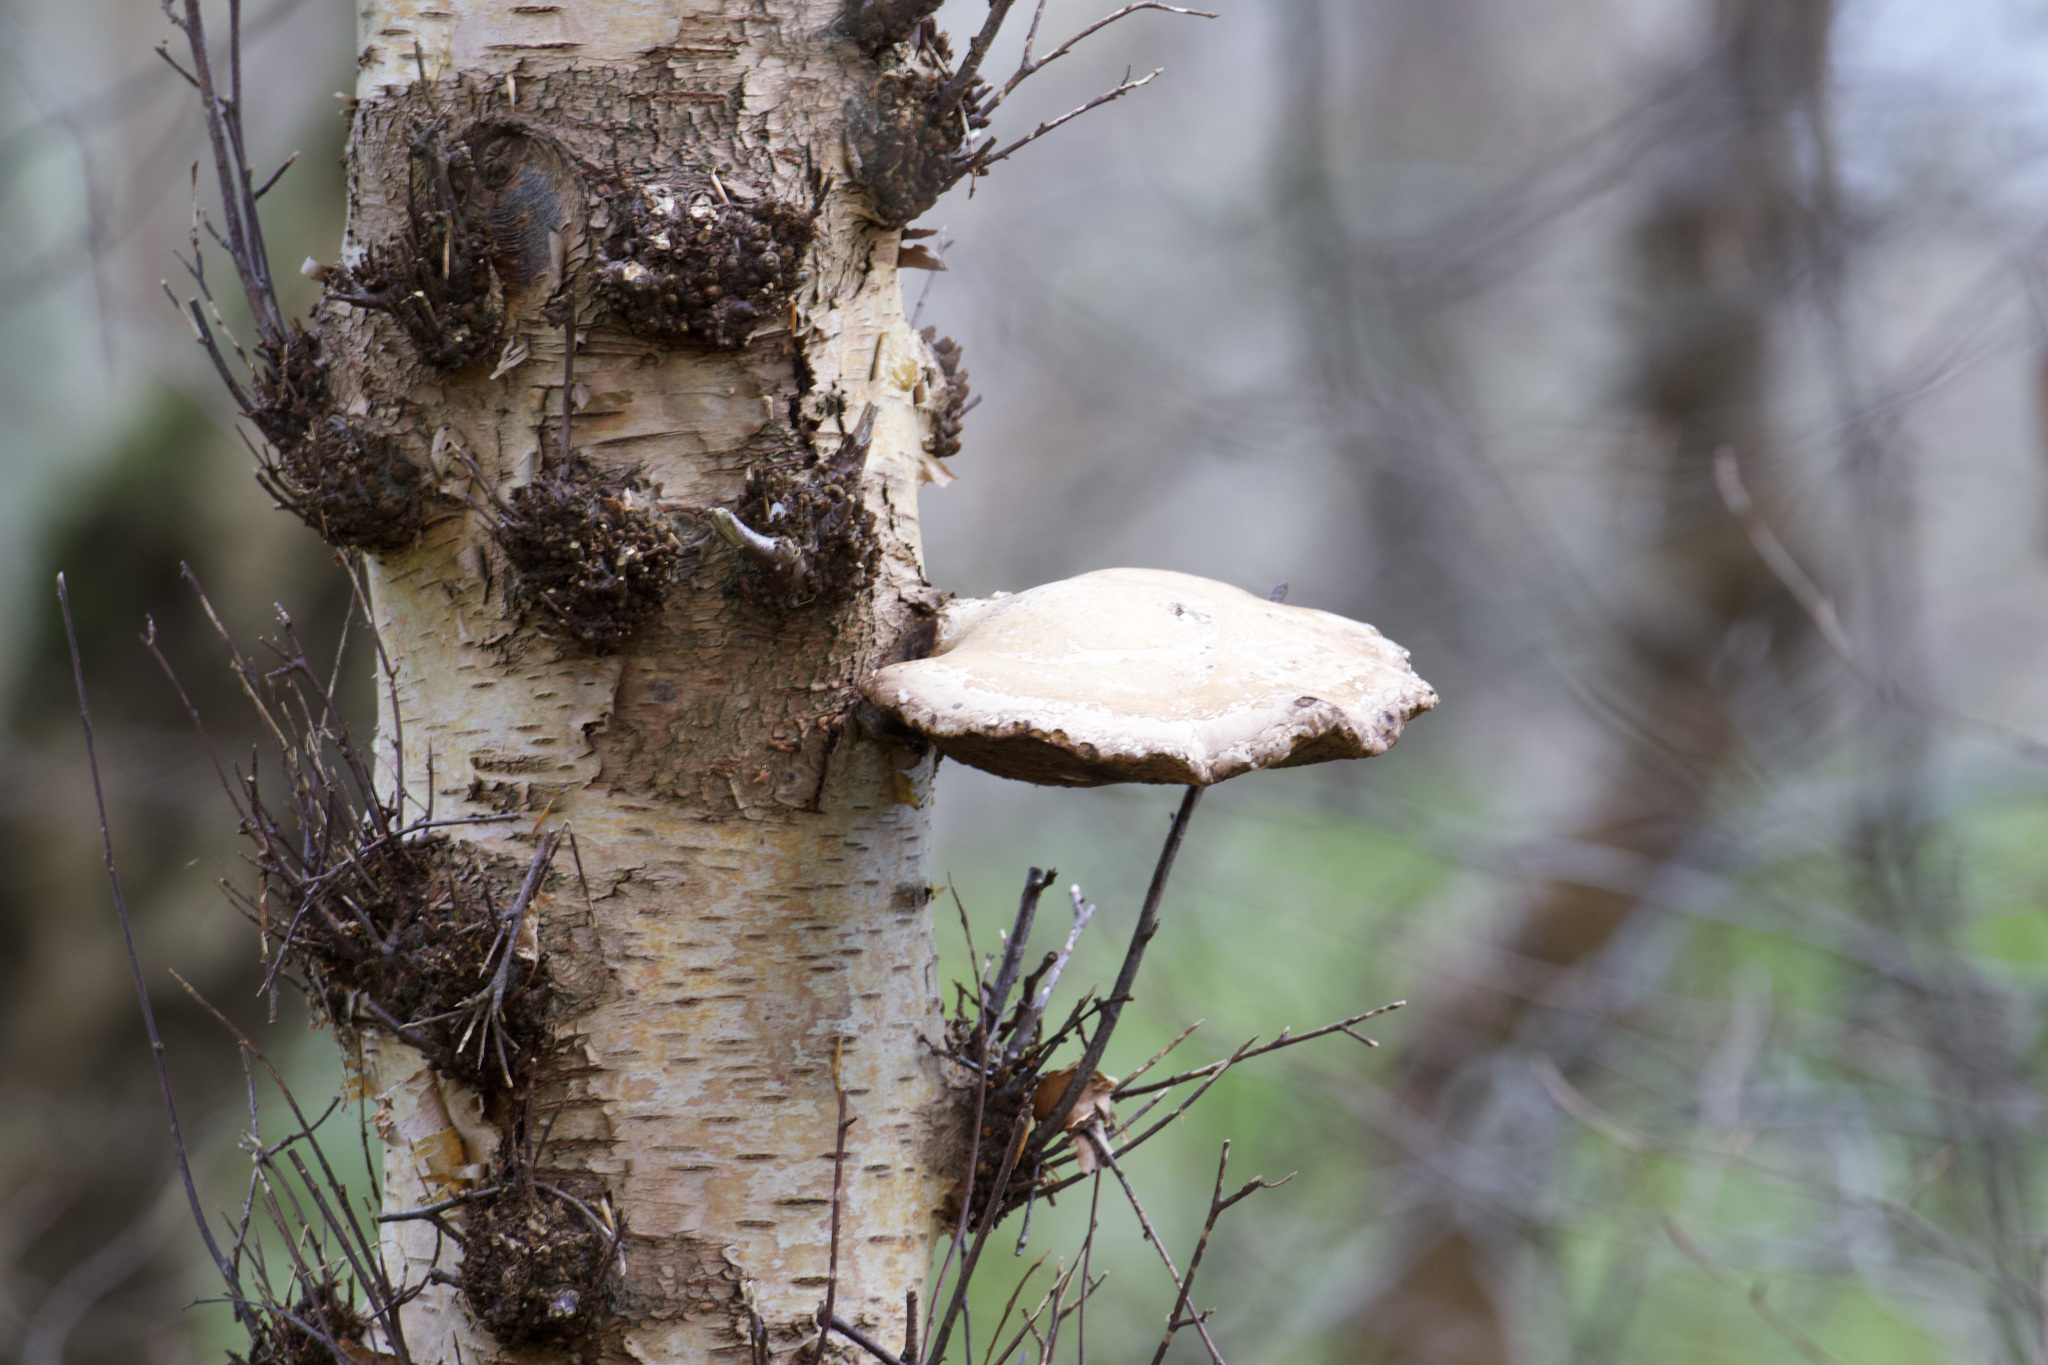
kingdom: Fungi
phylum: Basidiomycota
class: Agaricomycetes
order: Polyporales
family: Fomitopsidaceae
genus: Fomitopsis
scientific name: Fomitopsis betulina
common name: Birch polypore
